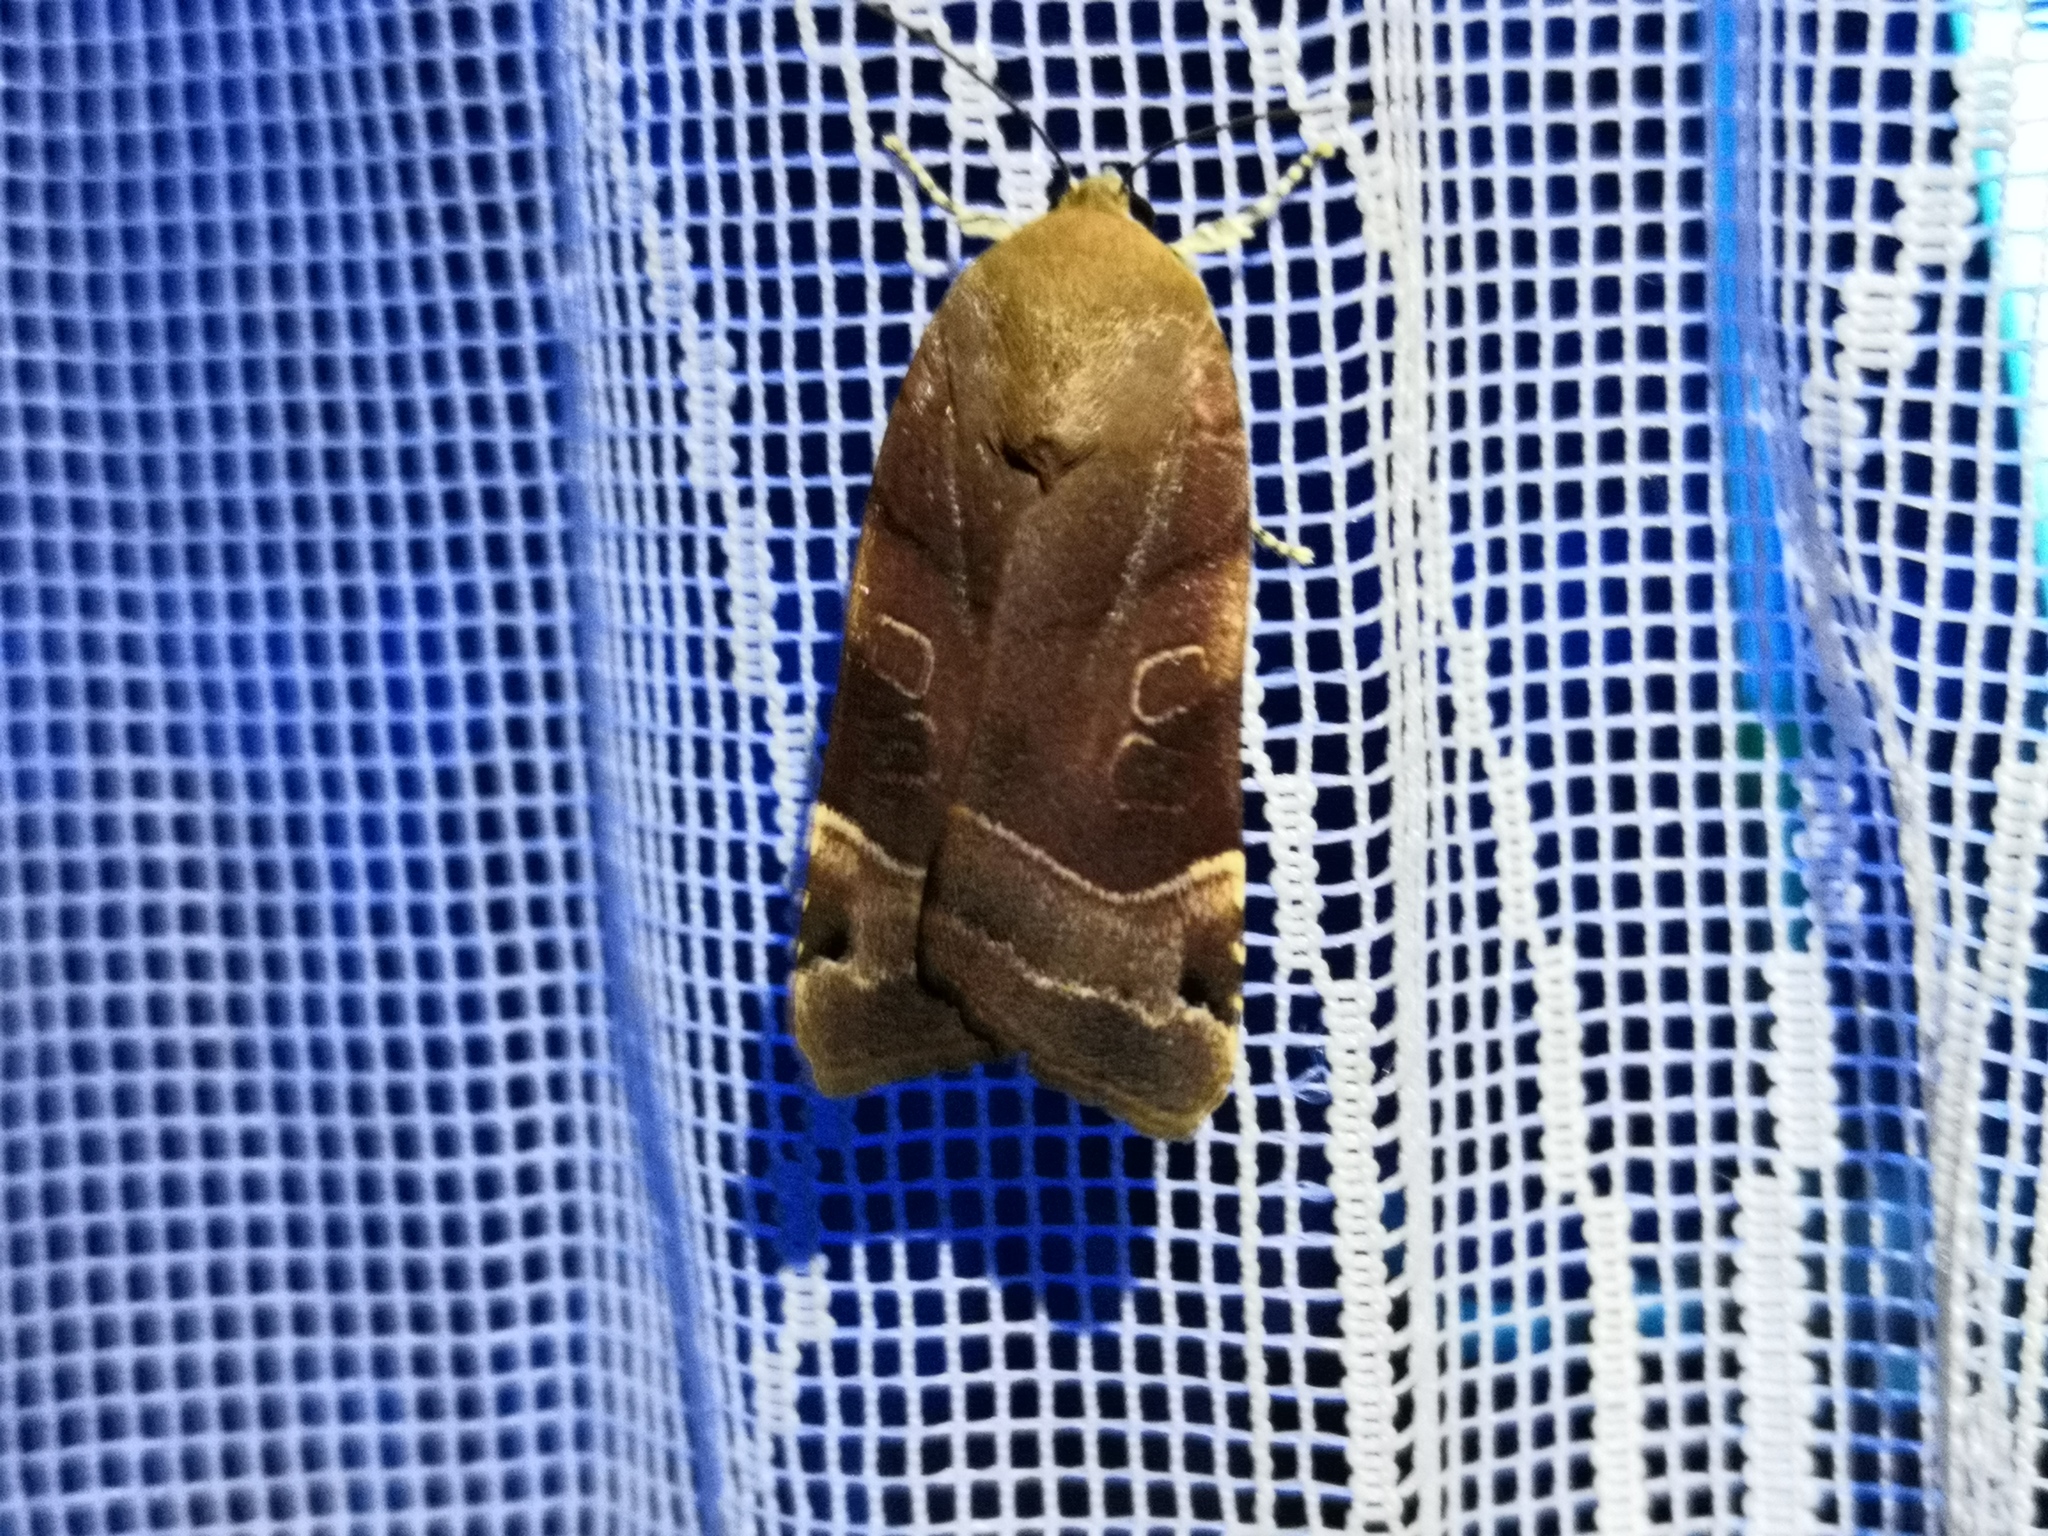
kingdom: Animalia
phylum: Arthropoda
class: Insecta
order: Lepidoptera
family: Noctuidae
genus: Noctua
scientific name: Noctua fimbriata
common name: Broad-bordered yellow underwing
